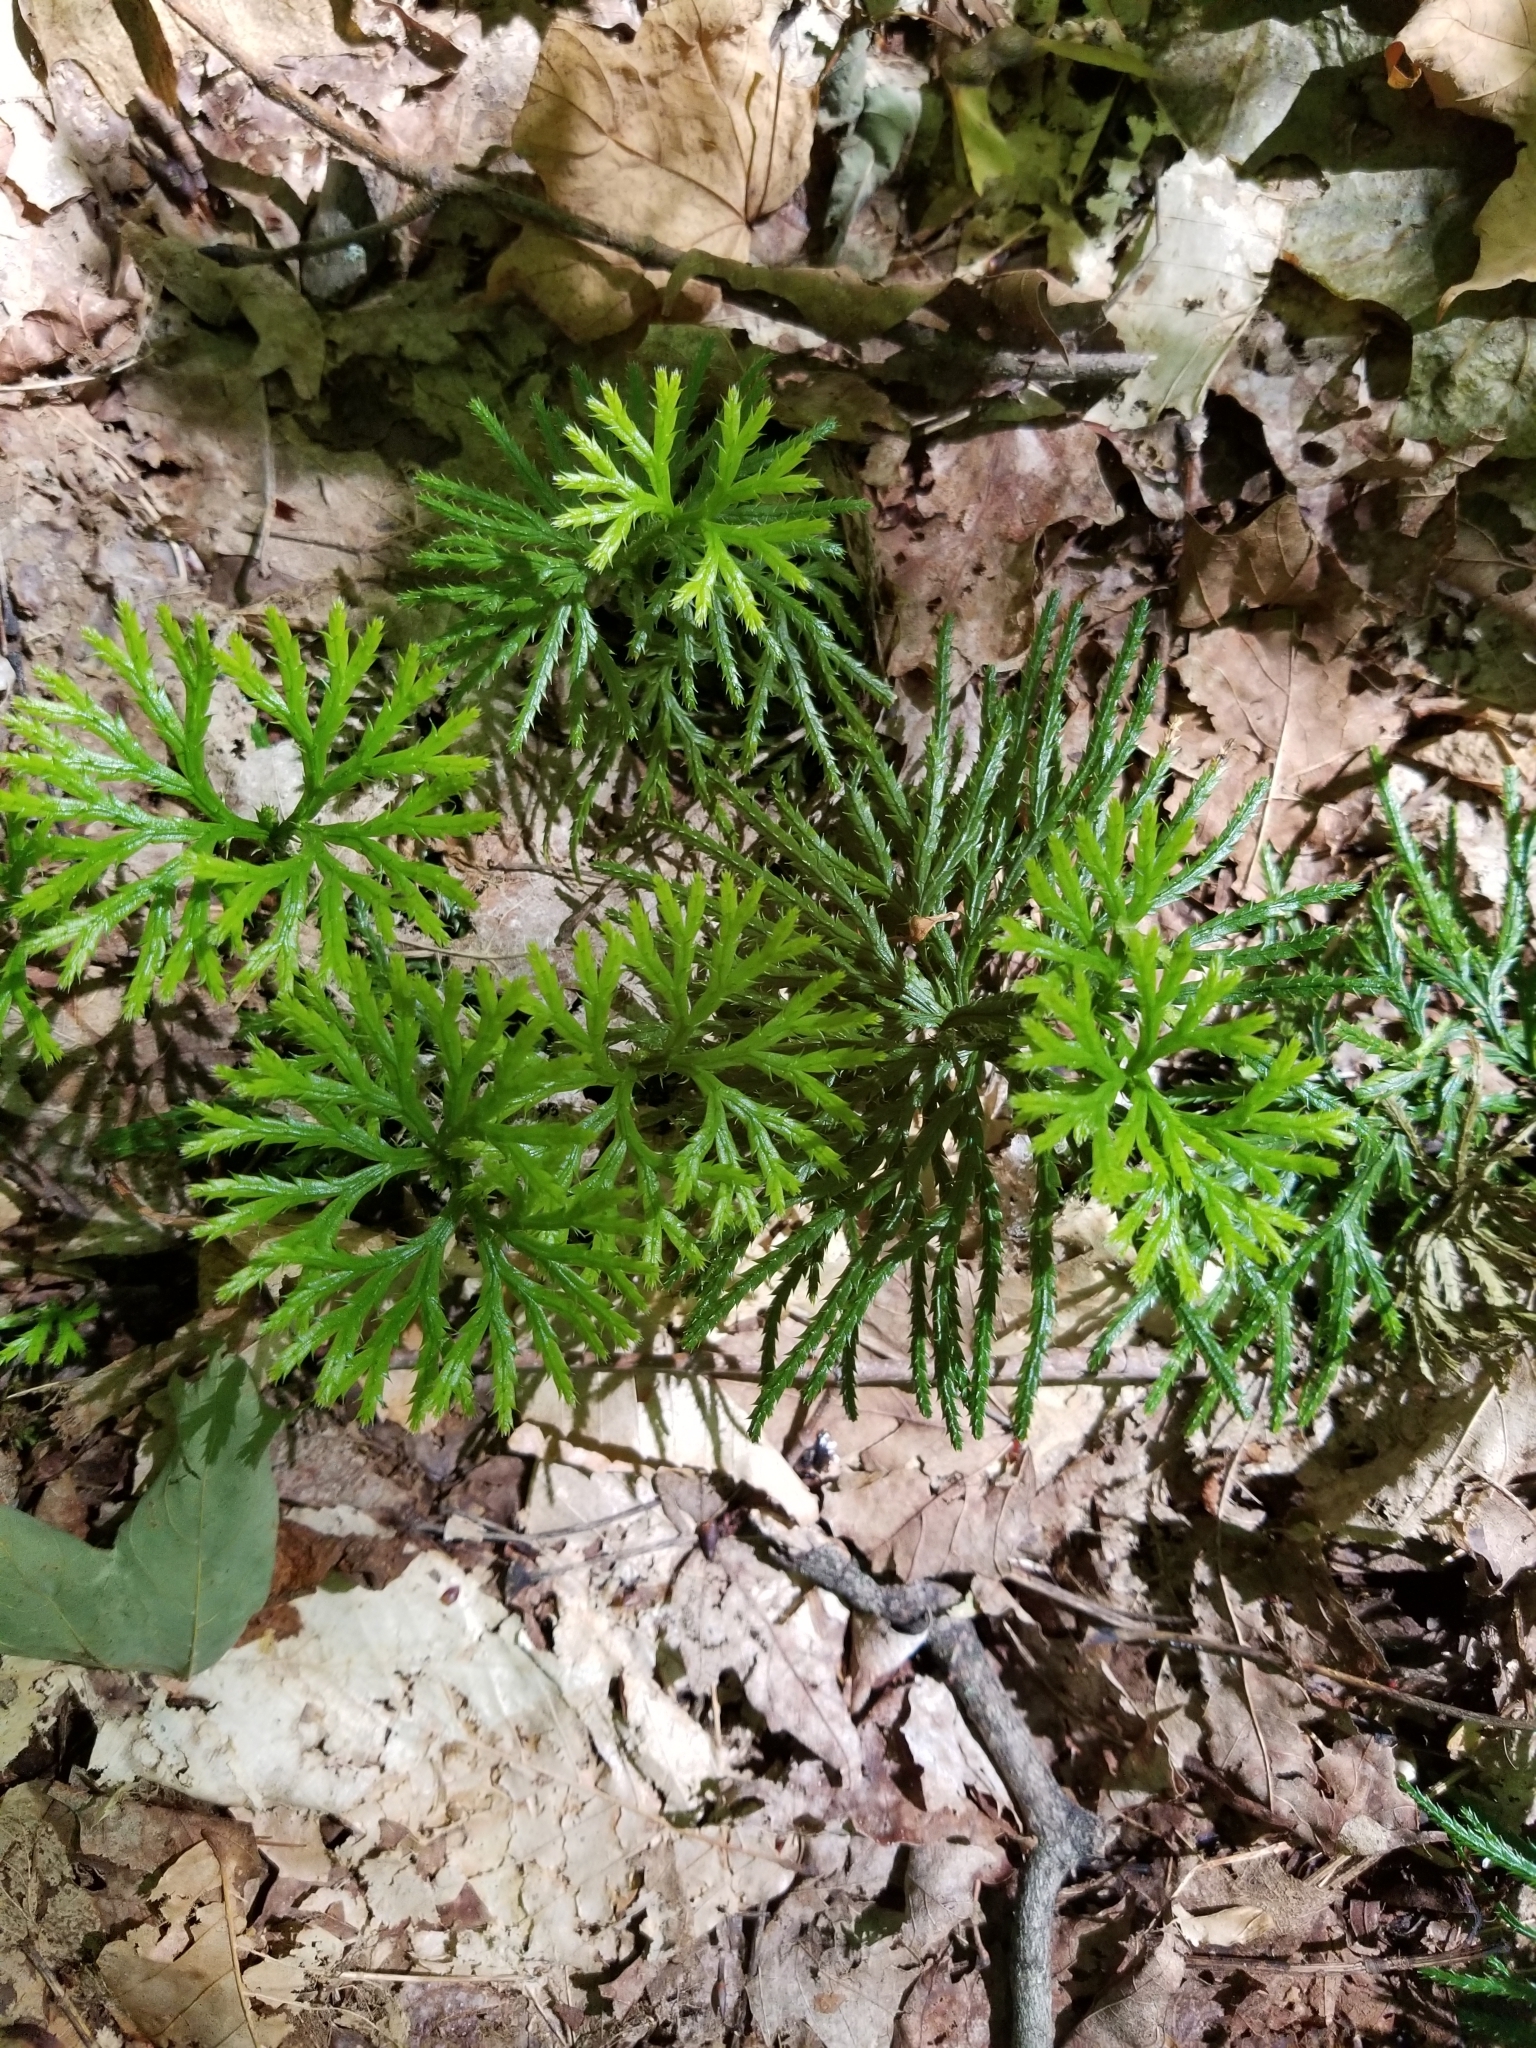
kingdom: Plantae
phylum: Tracheophyta
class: Lycopodiopsida
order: Lycopodiales
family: Lycopodiaceae
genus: Diphasiastrum
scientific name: Diphasiastrum digitatum
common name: Southern running-pine
